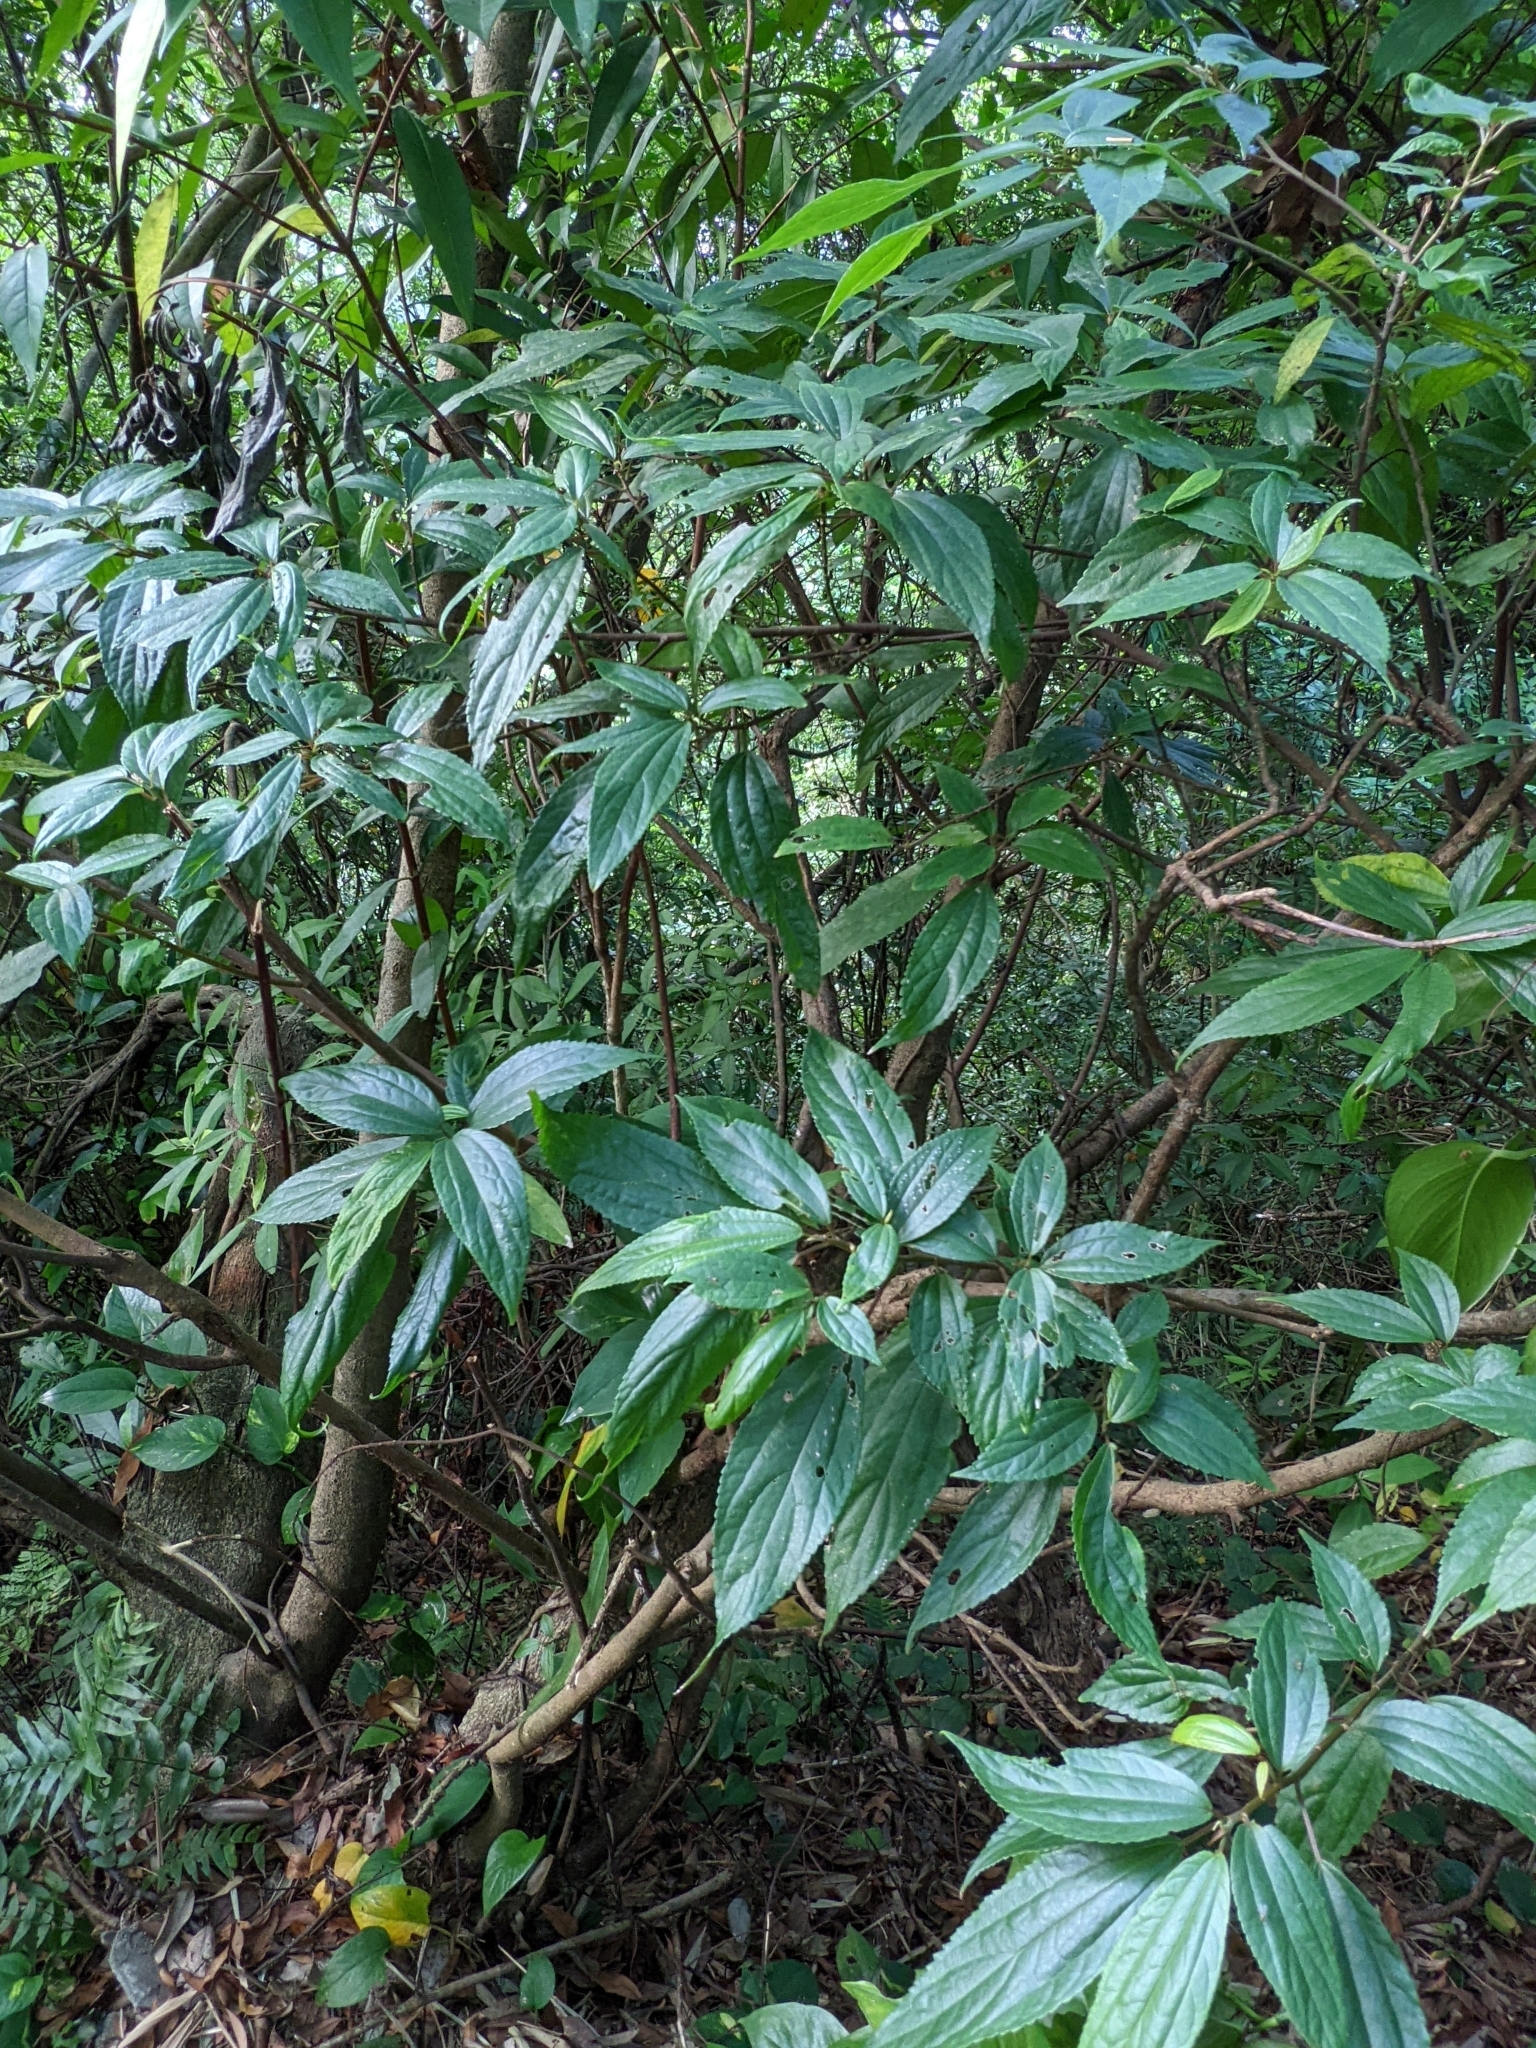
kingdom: Plantae
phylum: Tracheophyta
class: Magnoliopsida
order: Rosales
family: Urticaceae
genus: Oreocnide
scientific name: Oreocnide pedunculata
